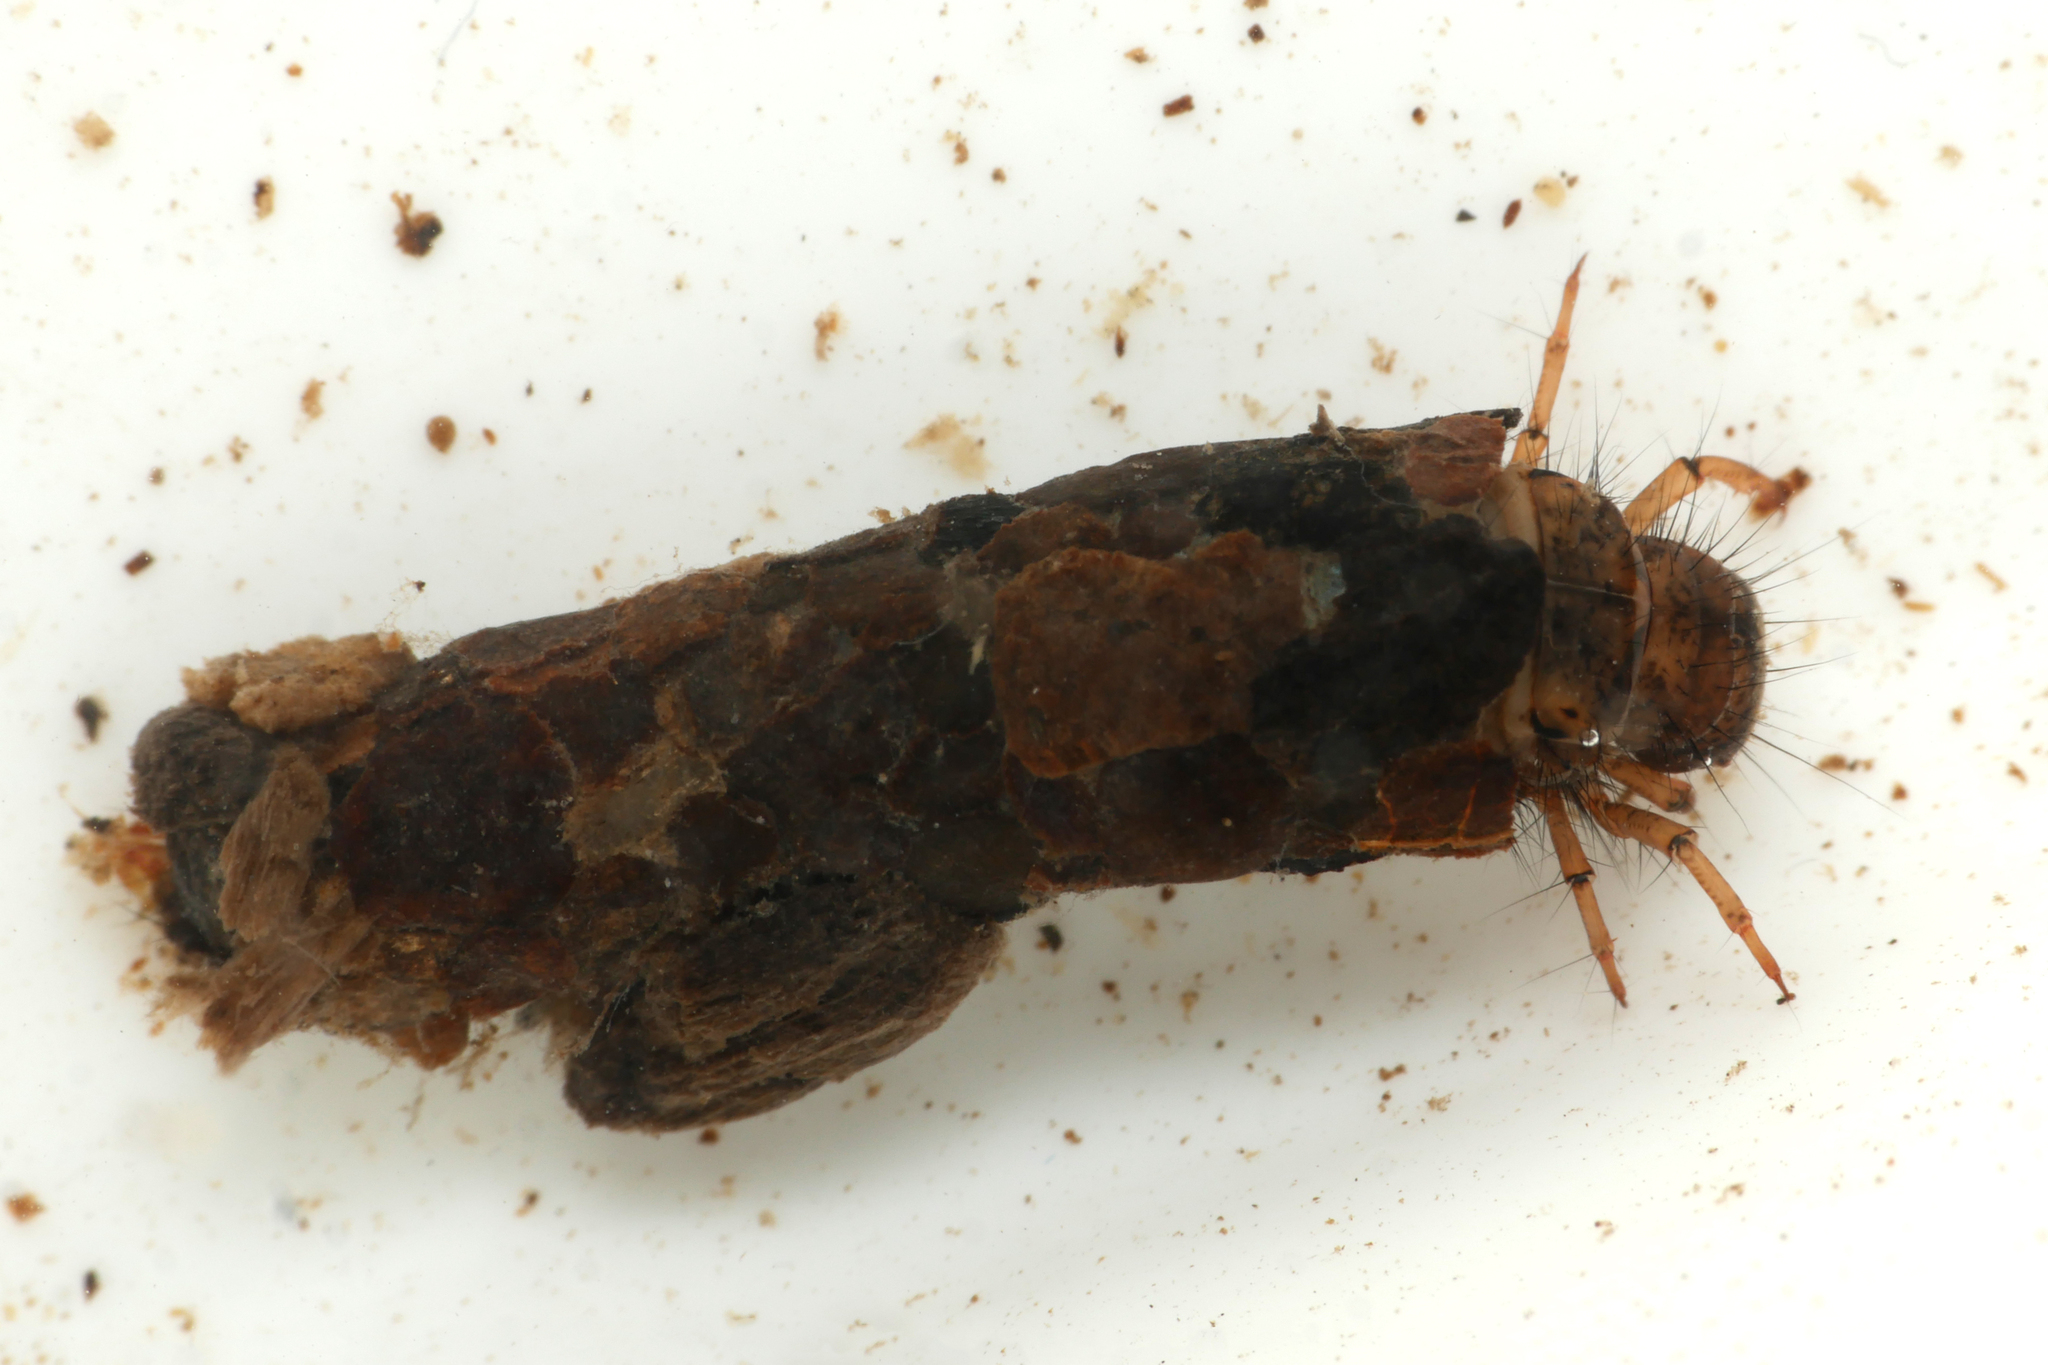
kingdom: Animalia
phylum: Arthropoda
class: Insecta
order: Trichoptera
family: Limnephilidae
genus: Stenophylax
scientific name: Stenophylax permistus
